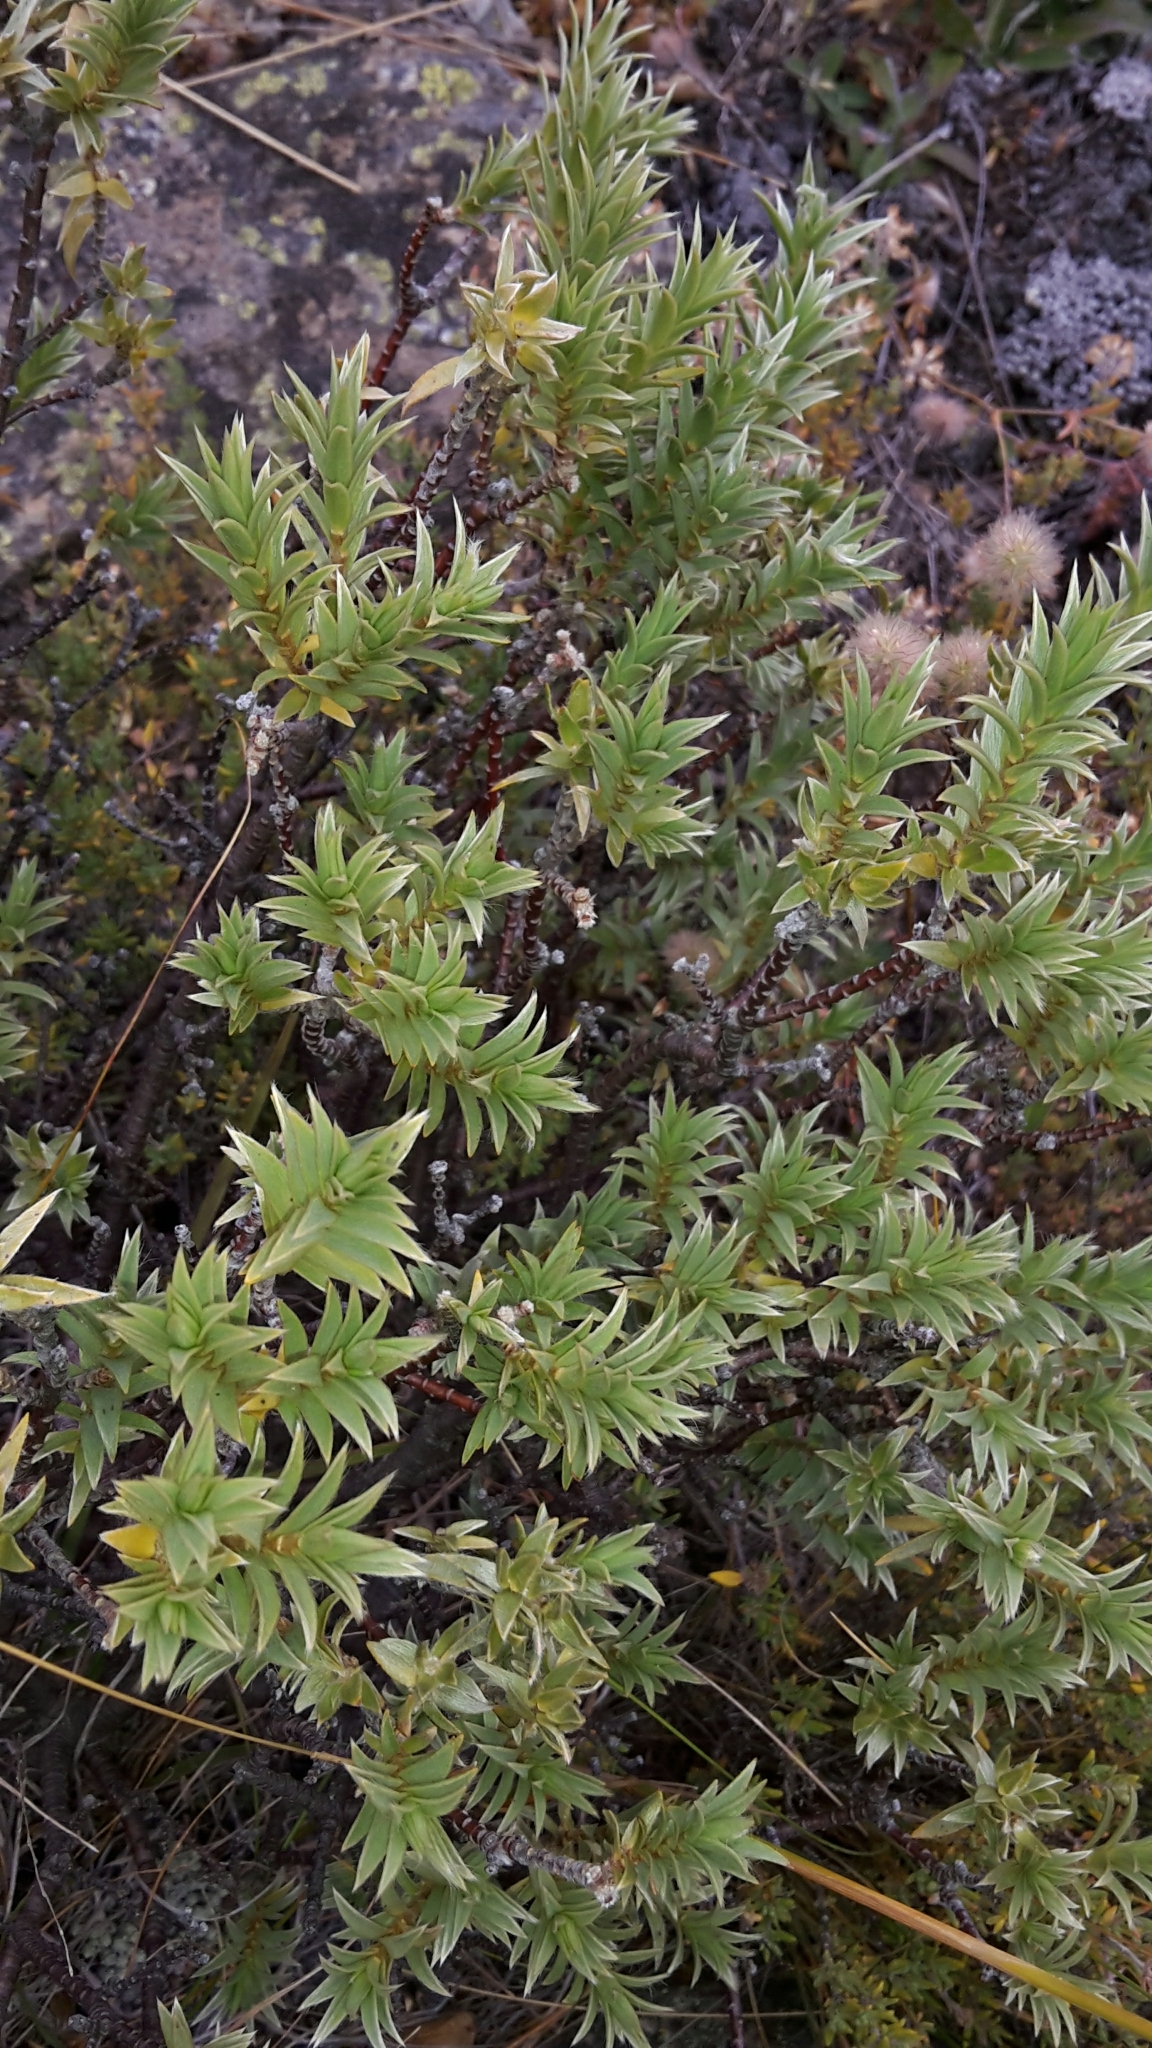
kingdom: Plantae
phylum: Tracheophyta
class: Magnoliopsida
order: Malvales
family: Thymelaeaceae
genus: Pimelea
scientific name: Pimelea aridula
